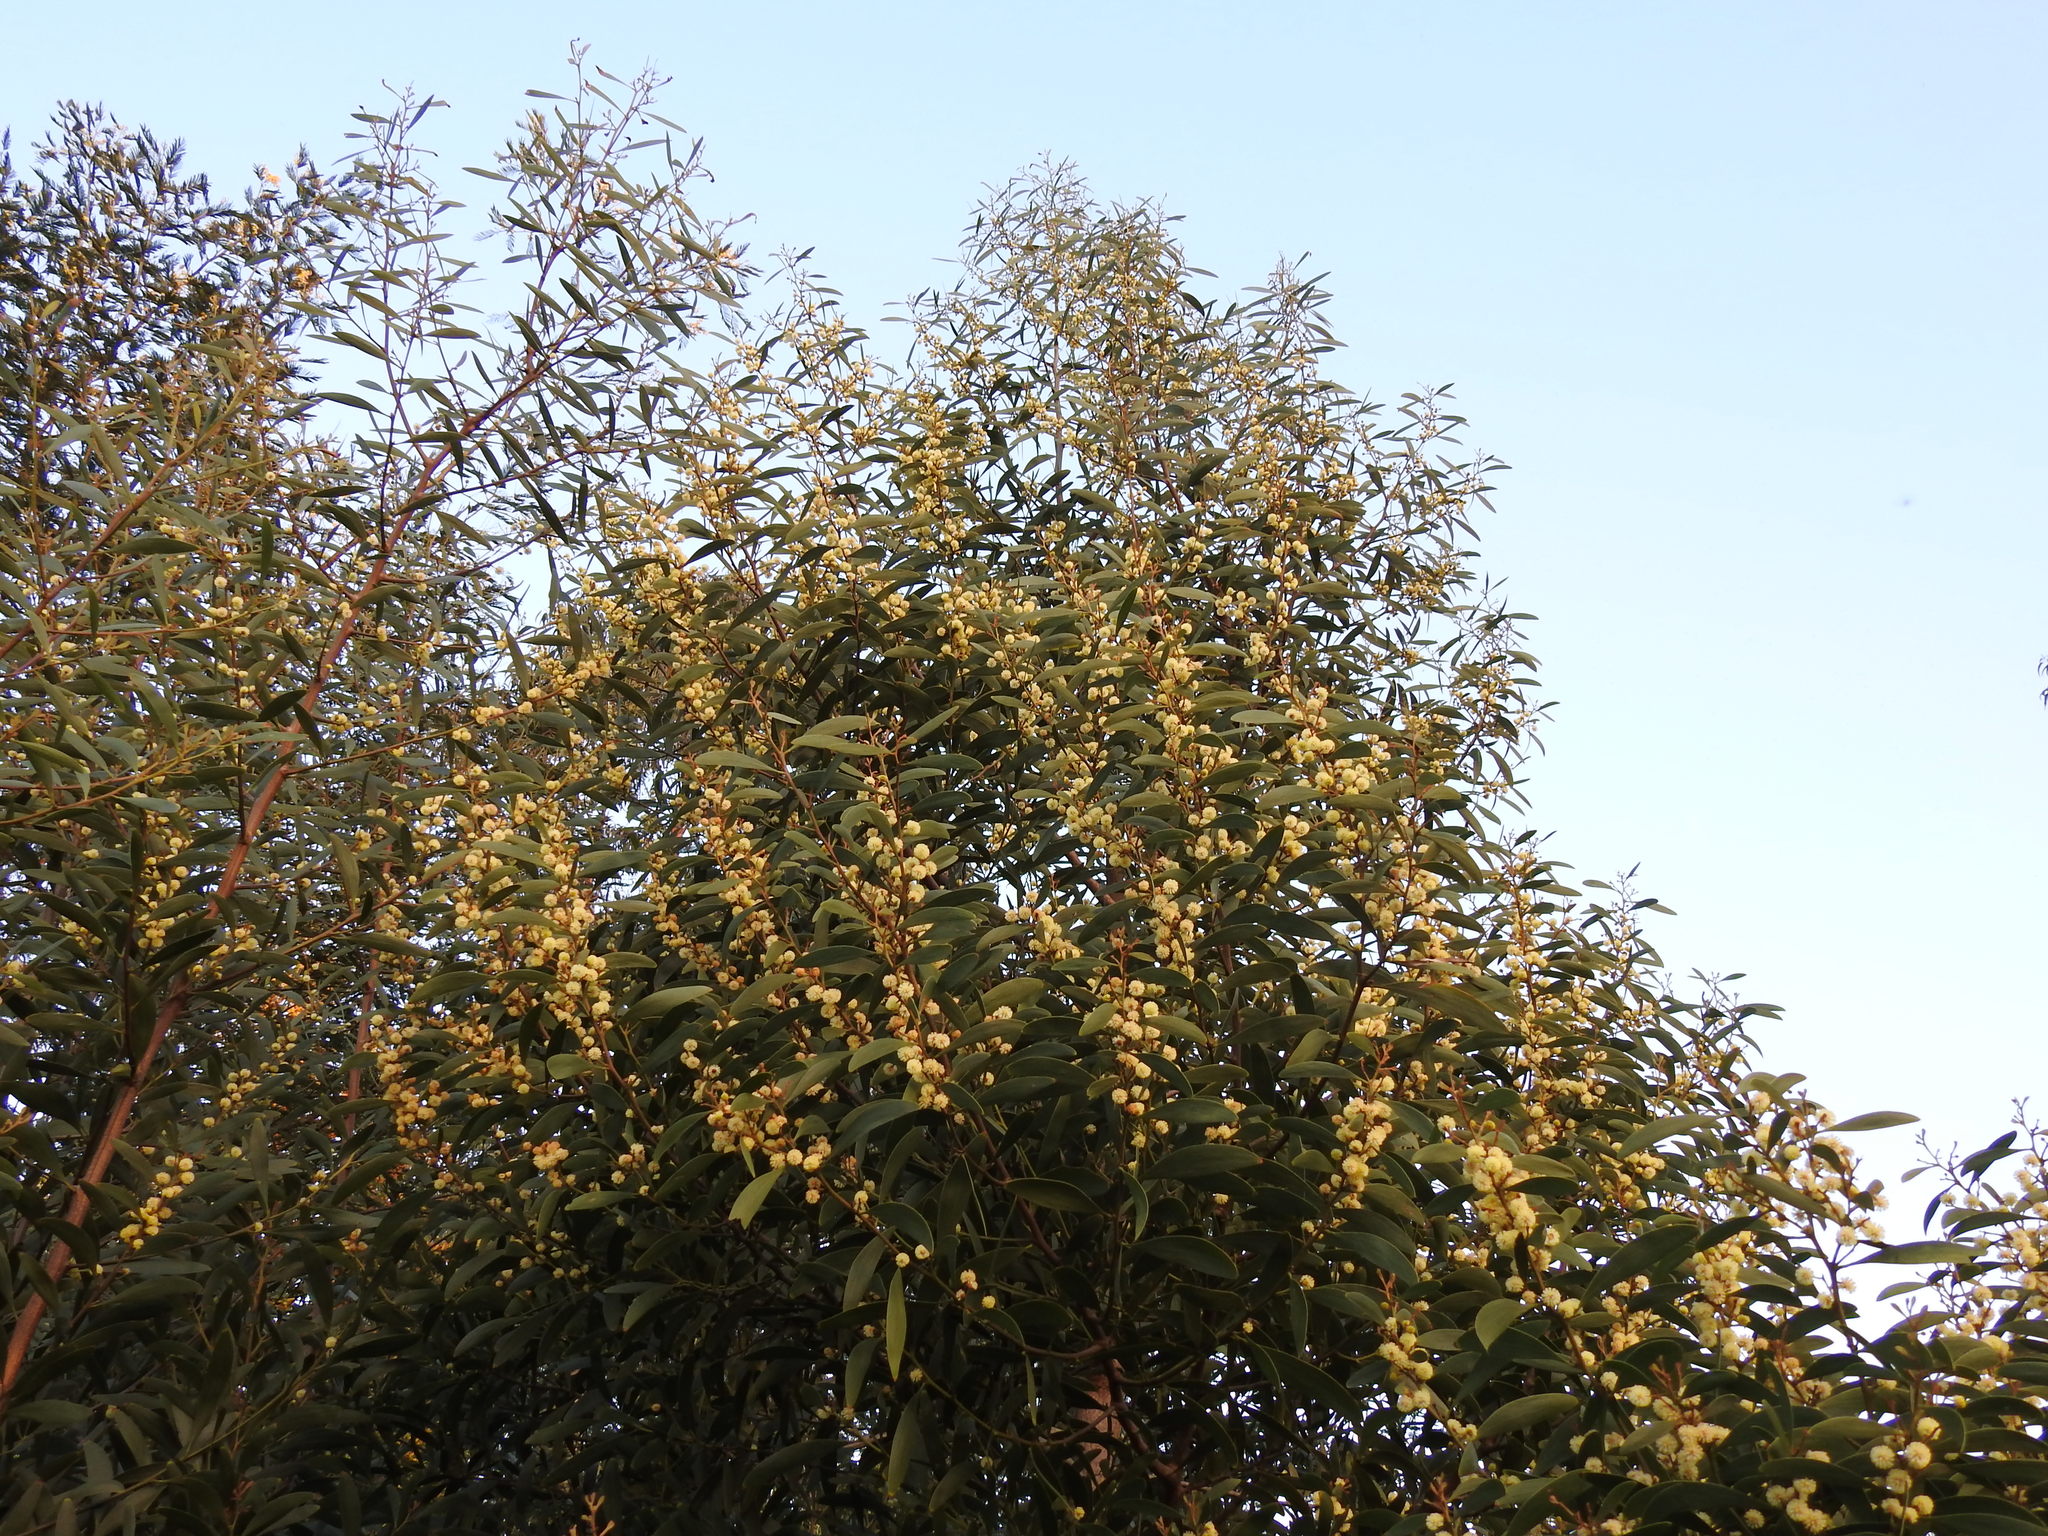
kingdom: Plantae
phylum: Tracheophyta
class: Magnoliopsida
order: Fabales
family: Fabaceae
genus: Acacia
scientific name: Acacia melanoxylon
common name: Blackwood
